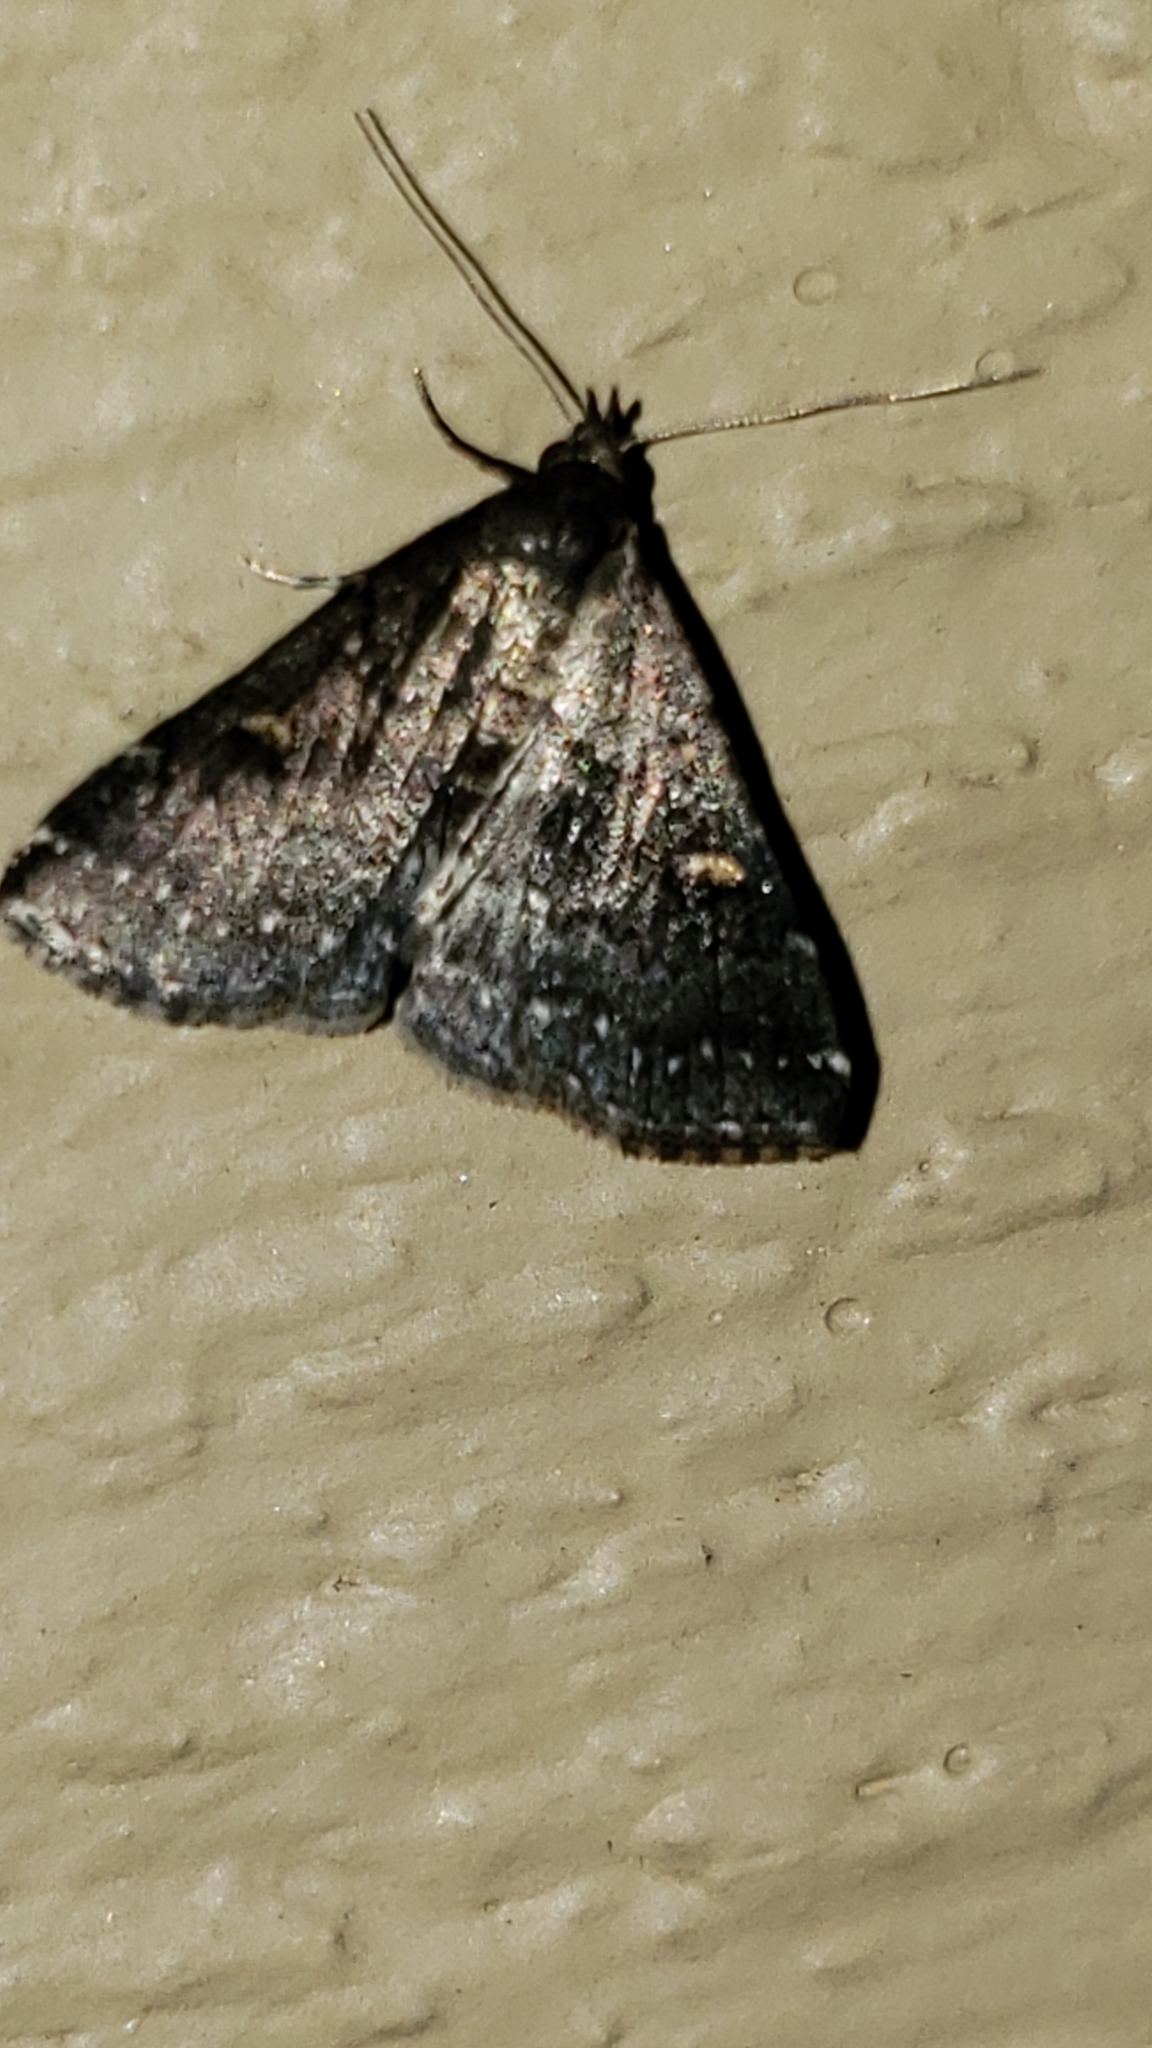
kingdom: Animalia
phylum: Arthropoda
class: Insecta
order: Lepidoptera
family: Erebidae
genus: Tetanolita
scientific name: Tetanolita mynesalis
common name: Smoky tetanolita moth
